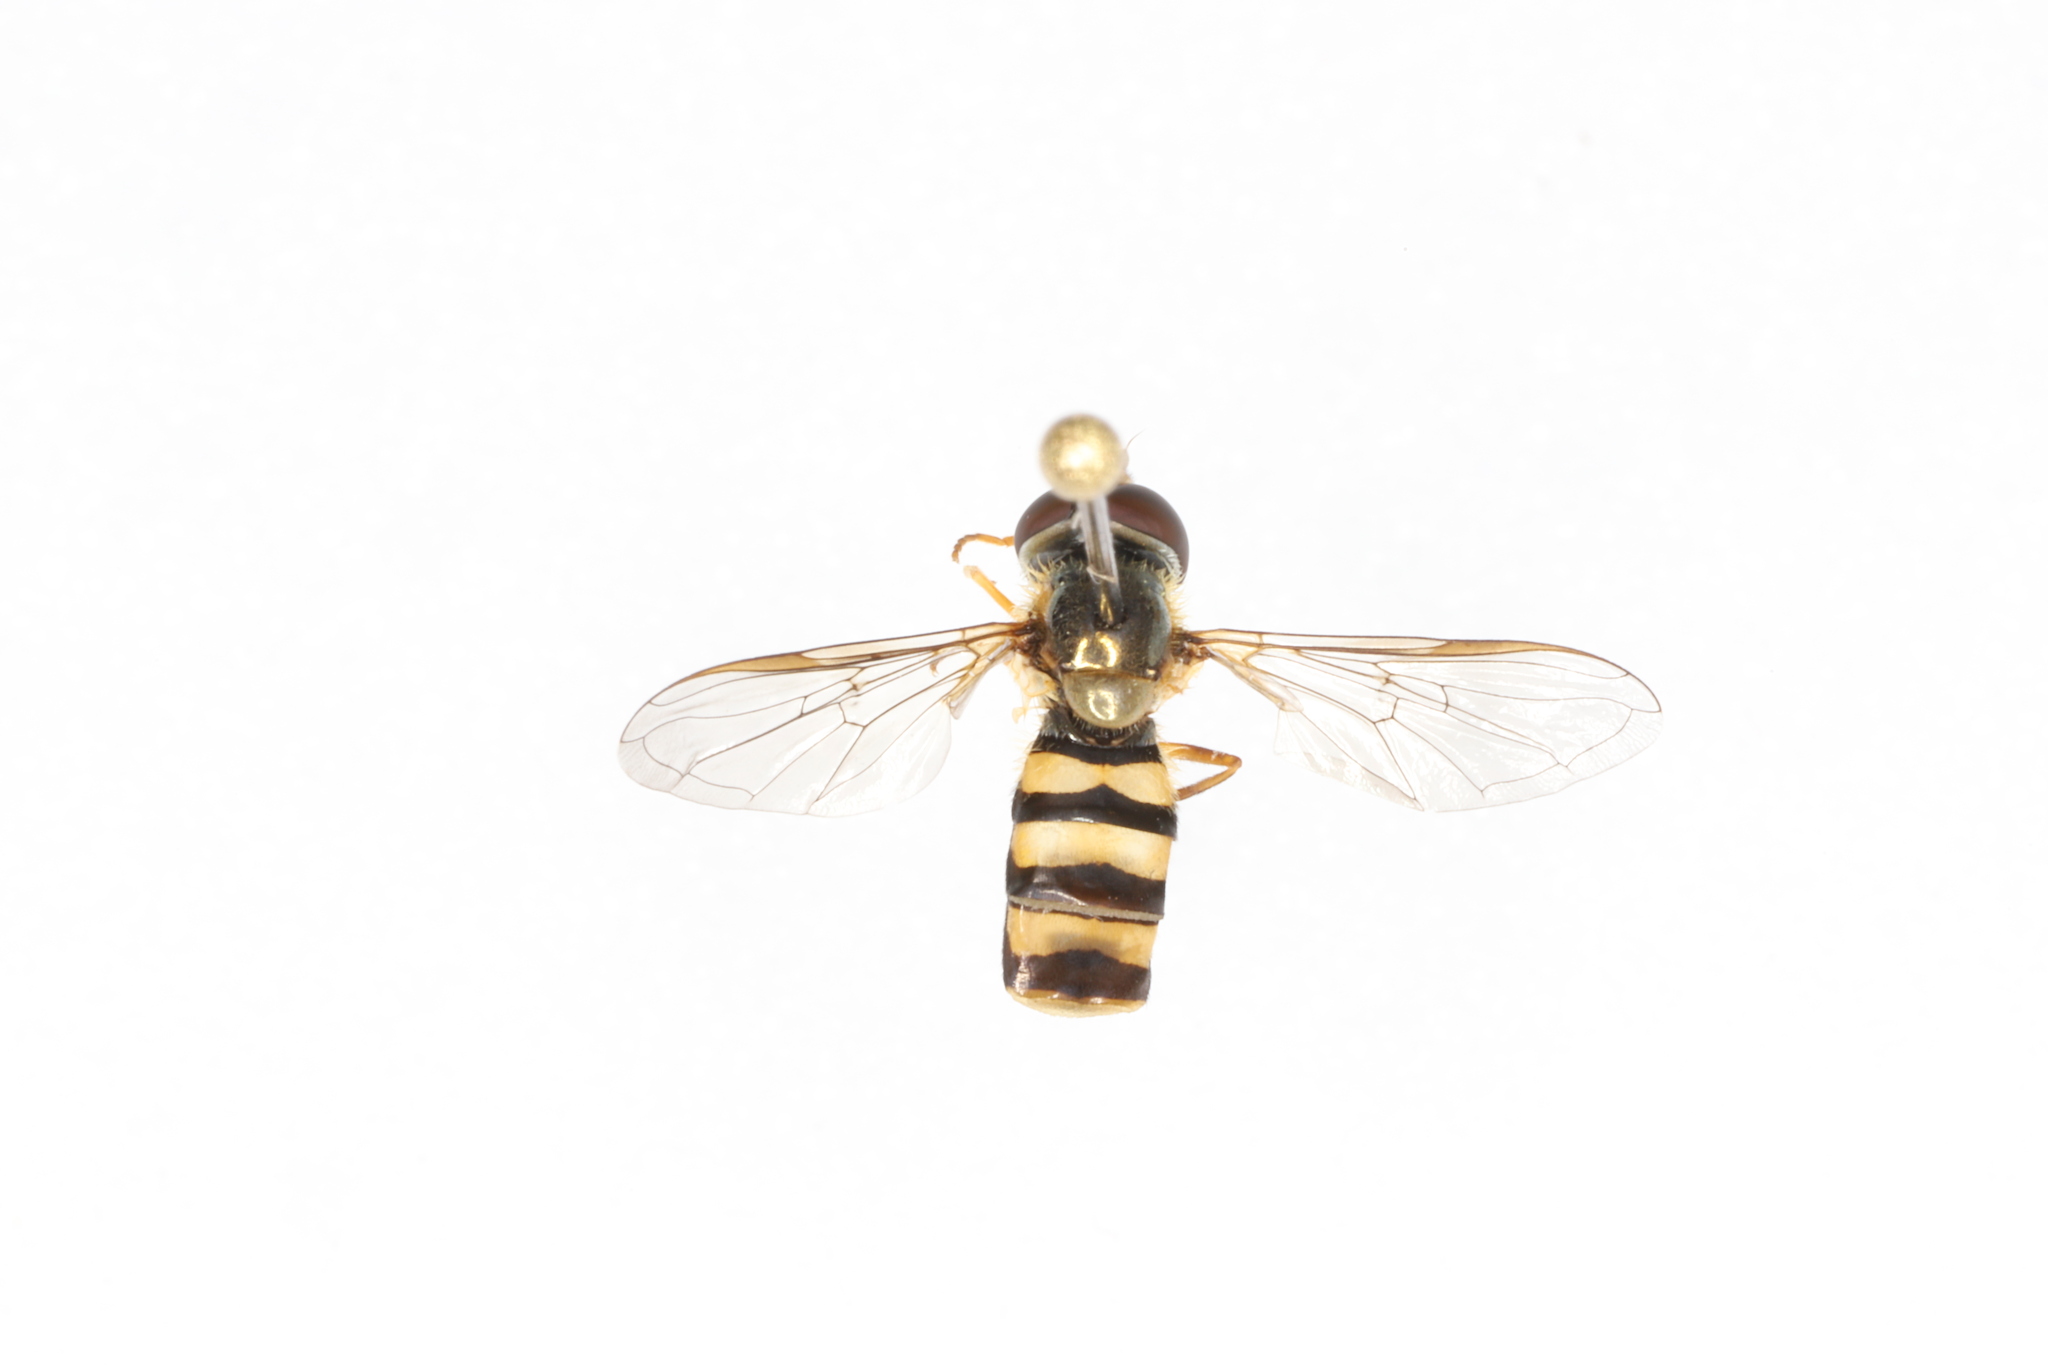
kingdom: Animalia
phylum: Arthropoda
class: Insecta
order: Diptera
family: Syrphidae
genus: Eupeodes
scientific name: Eupeodes
